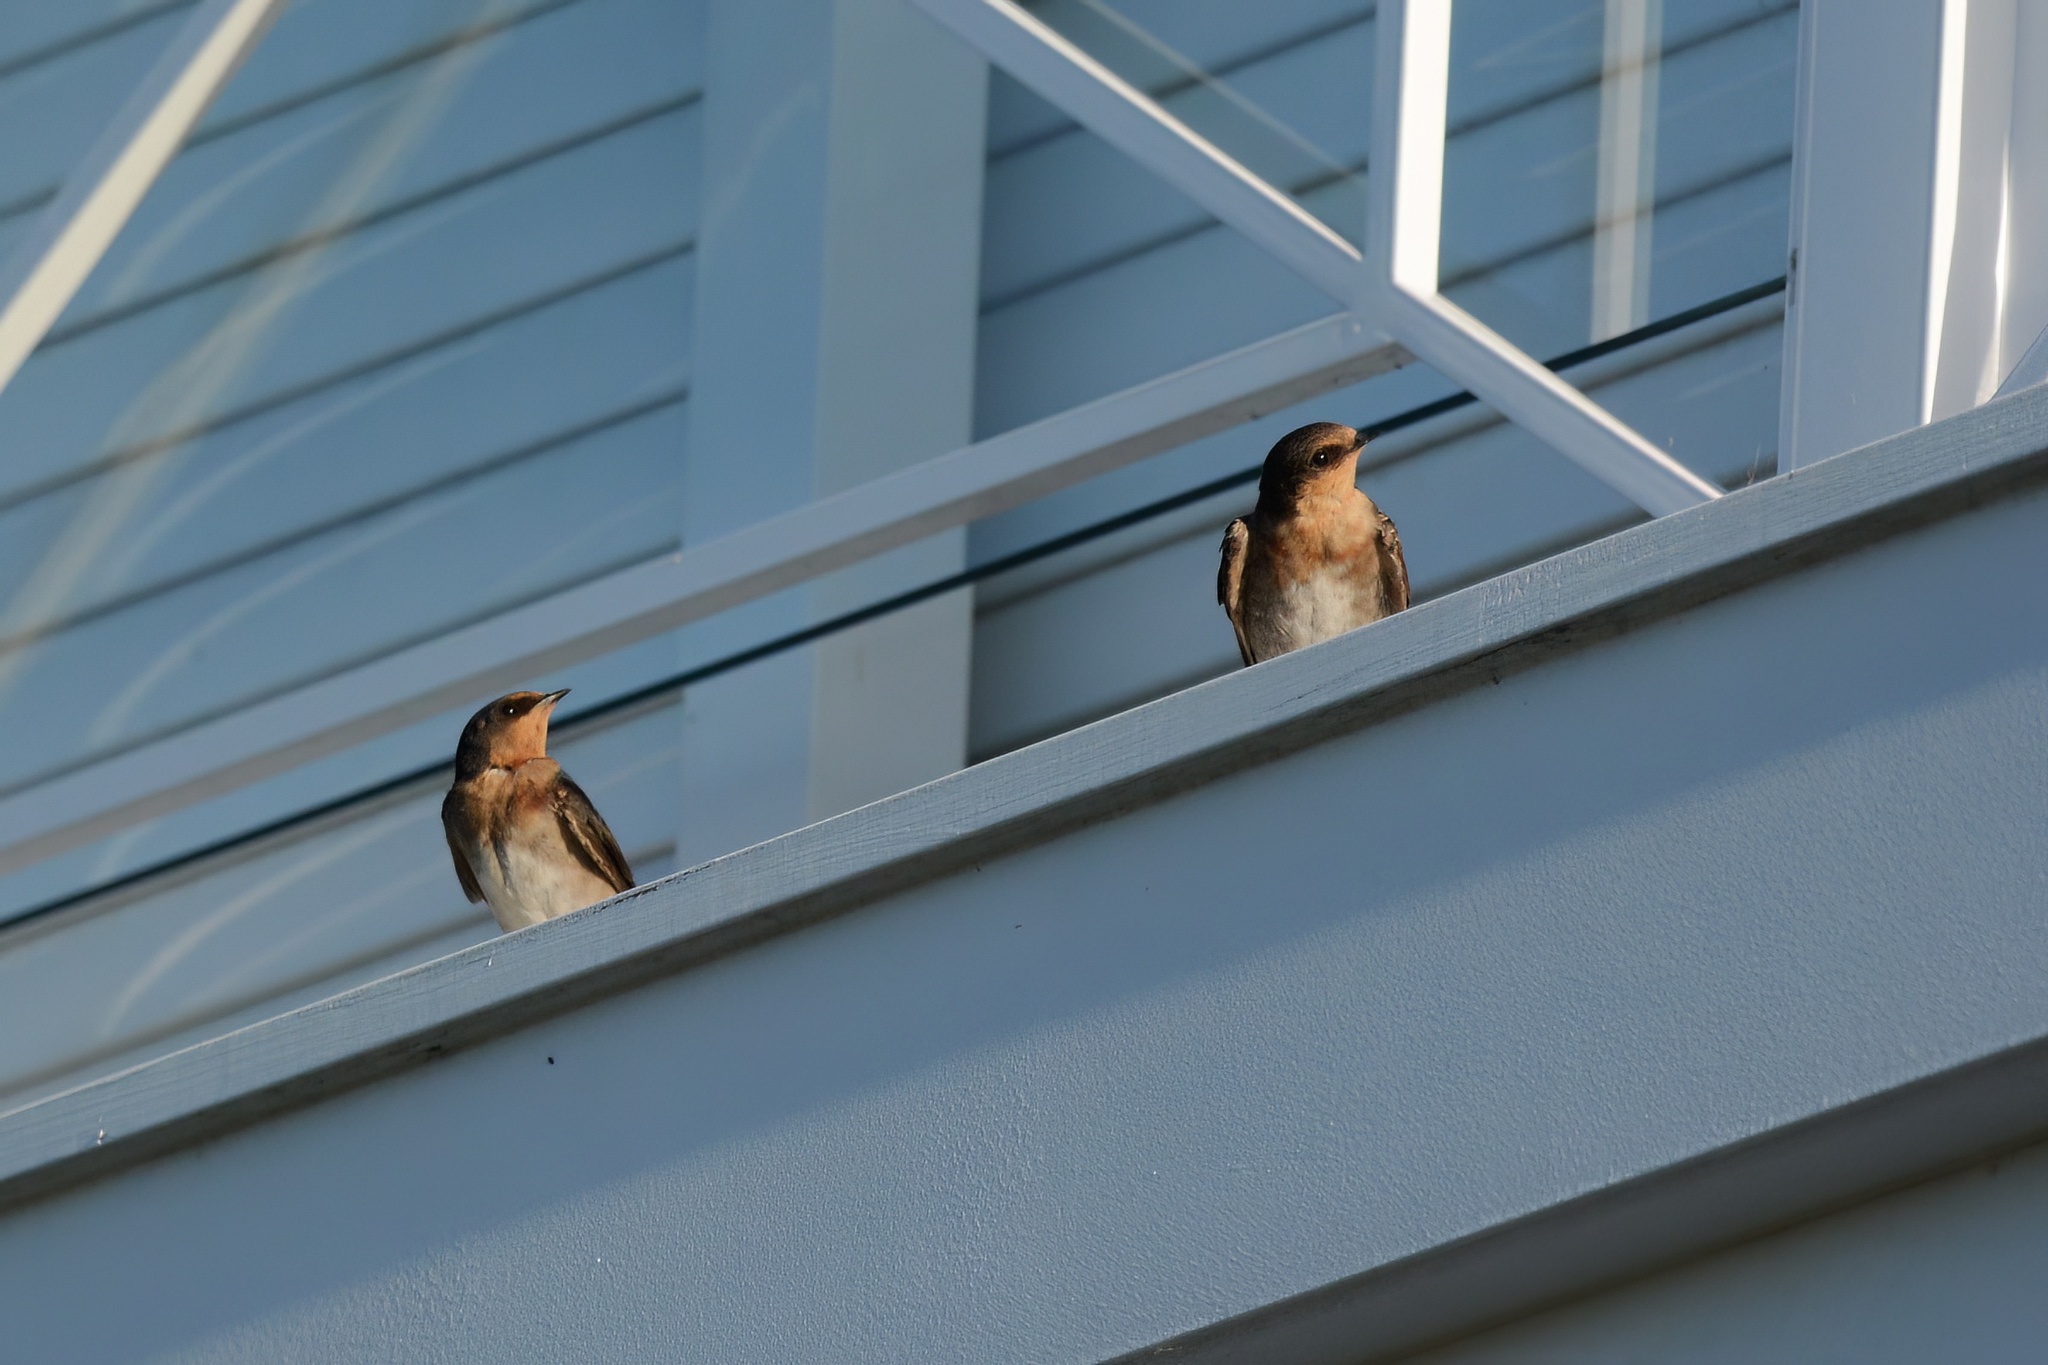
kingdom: Animalia
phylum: Chordata
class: Aves
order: Passeriformes
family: Hirundinidae
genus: Hirundo
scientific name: Hirundo neoxena
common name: Welcome swallow
